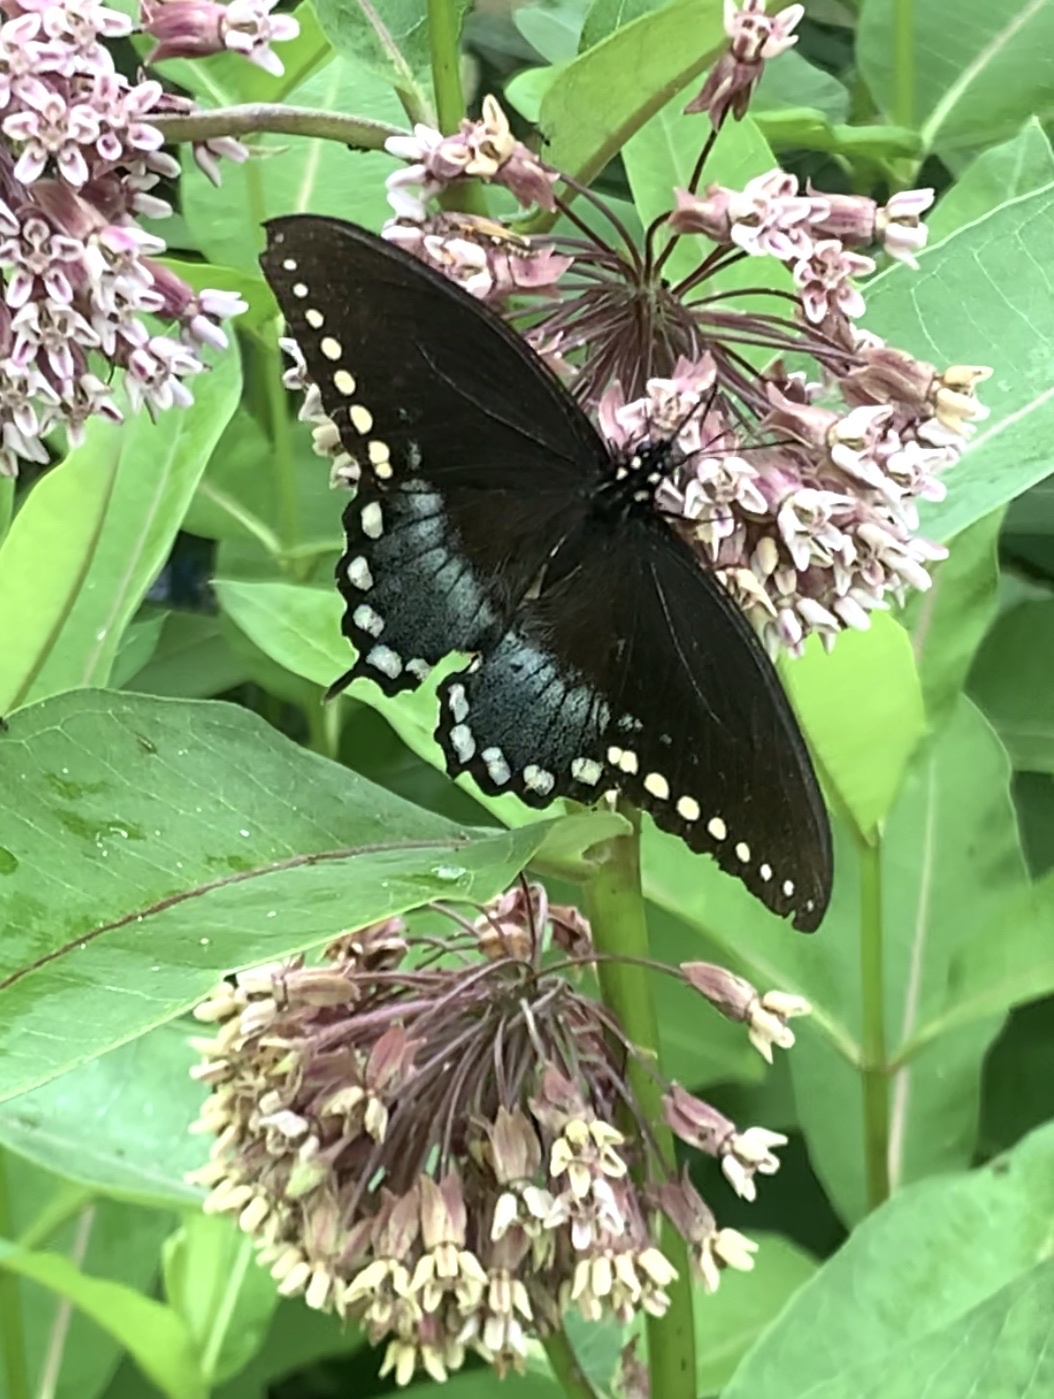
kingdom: Animalia
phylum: Arthropoda
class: Insecta
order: Lepidoptera
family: Papilionidae
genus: Papilio
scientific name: Papilio troilus
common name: Spicebush swallowtail
